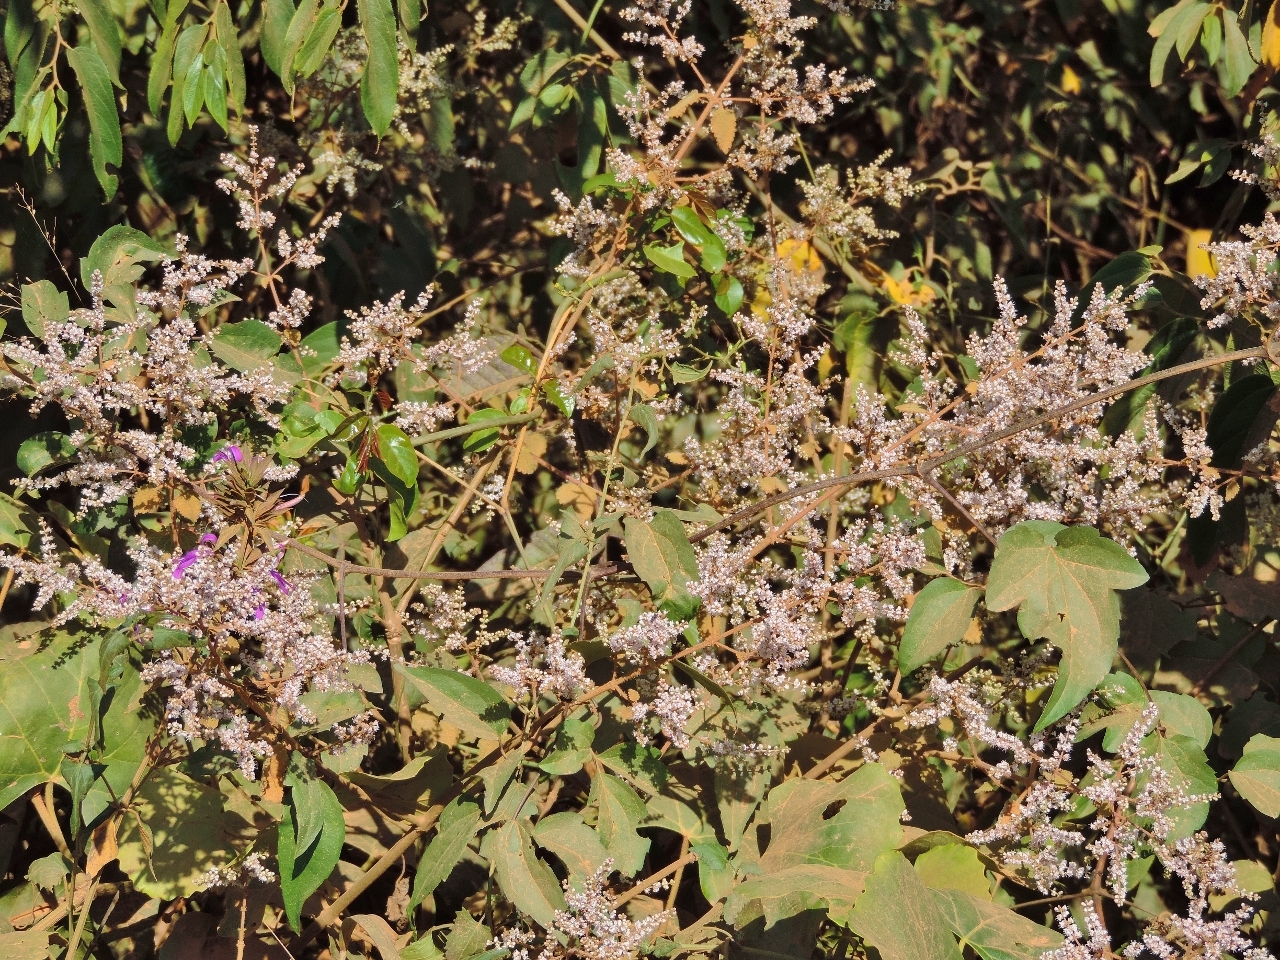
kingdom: Plantae
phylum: Tracheophyta
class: Magnoliopsida
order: Lamiales
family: Lamiaceae
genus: Tetradenia
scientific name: Tetradenia riparia
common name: Gingerbush
